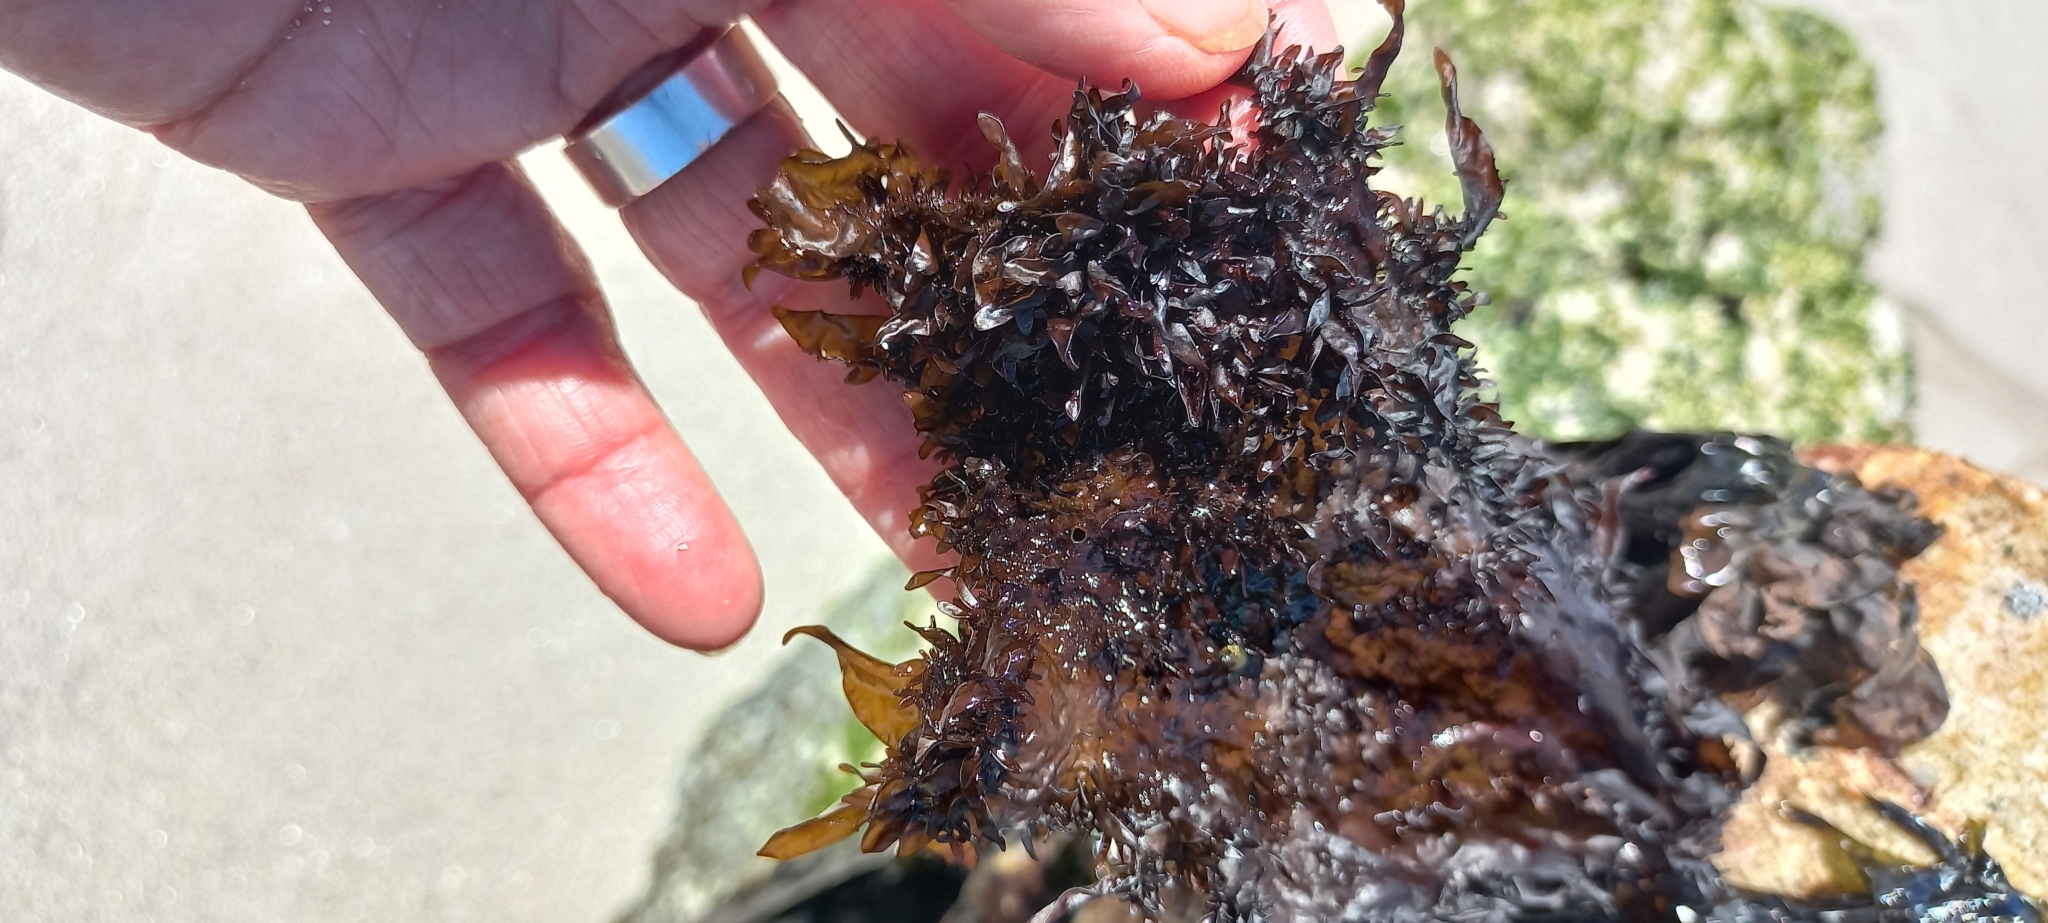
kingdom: Plantae
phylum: Rhodophyta
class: Florideophyceae
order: Nemaliales
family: Scinaiaceae
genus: Nothogenia
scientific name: Nothogenia erinacea
